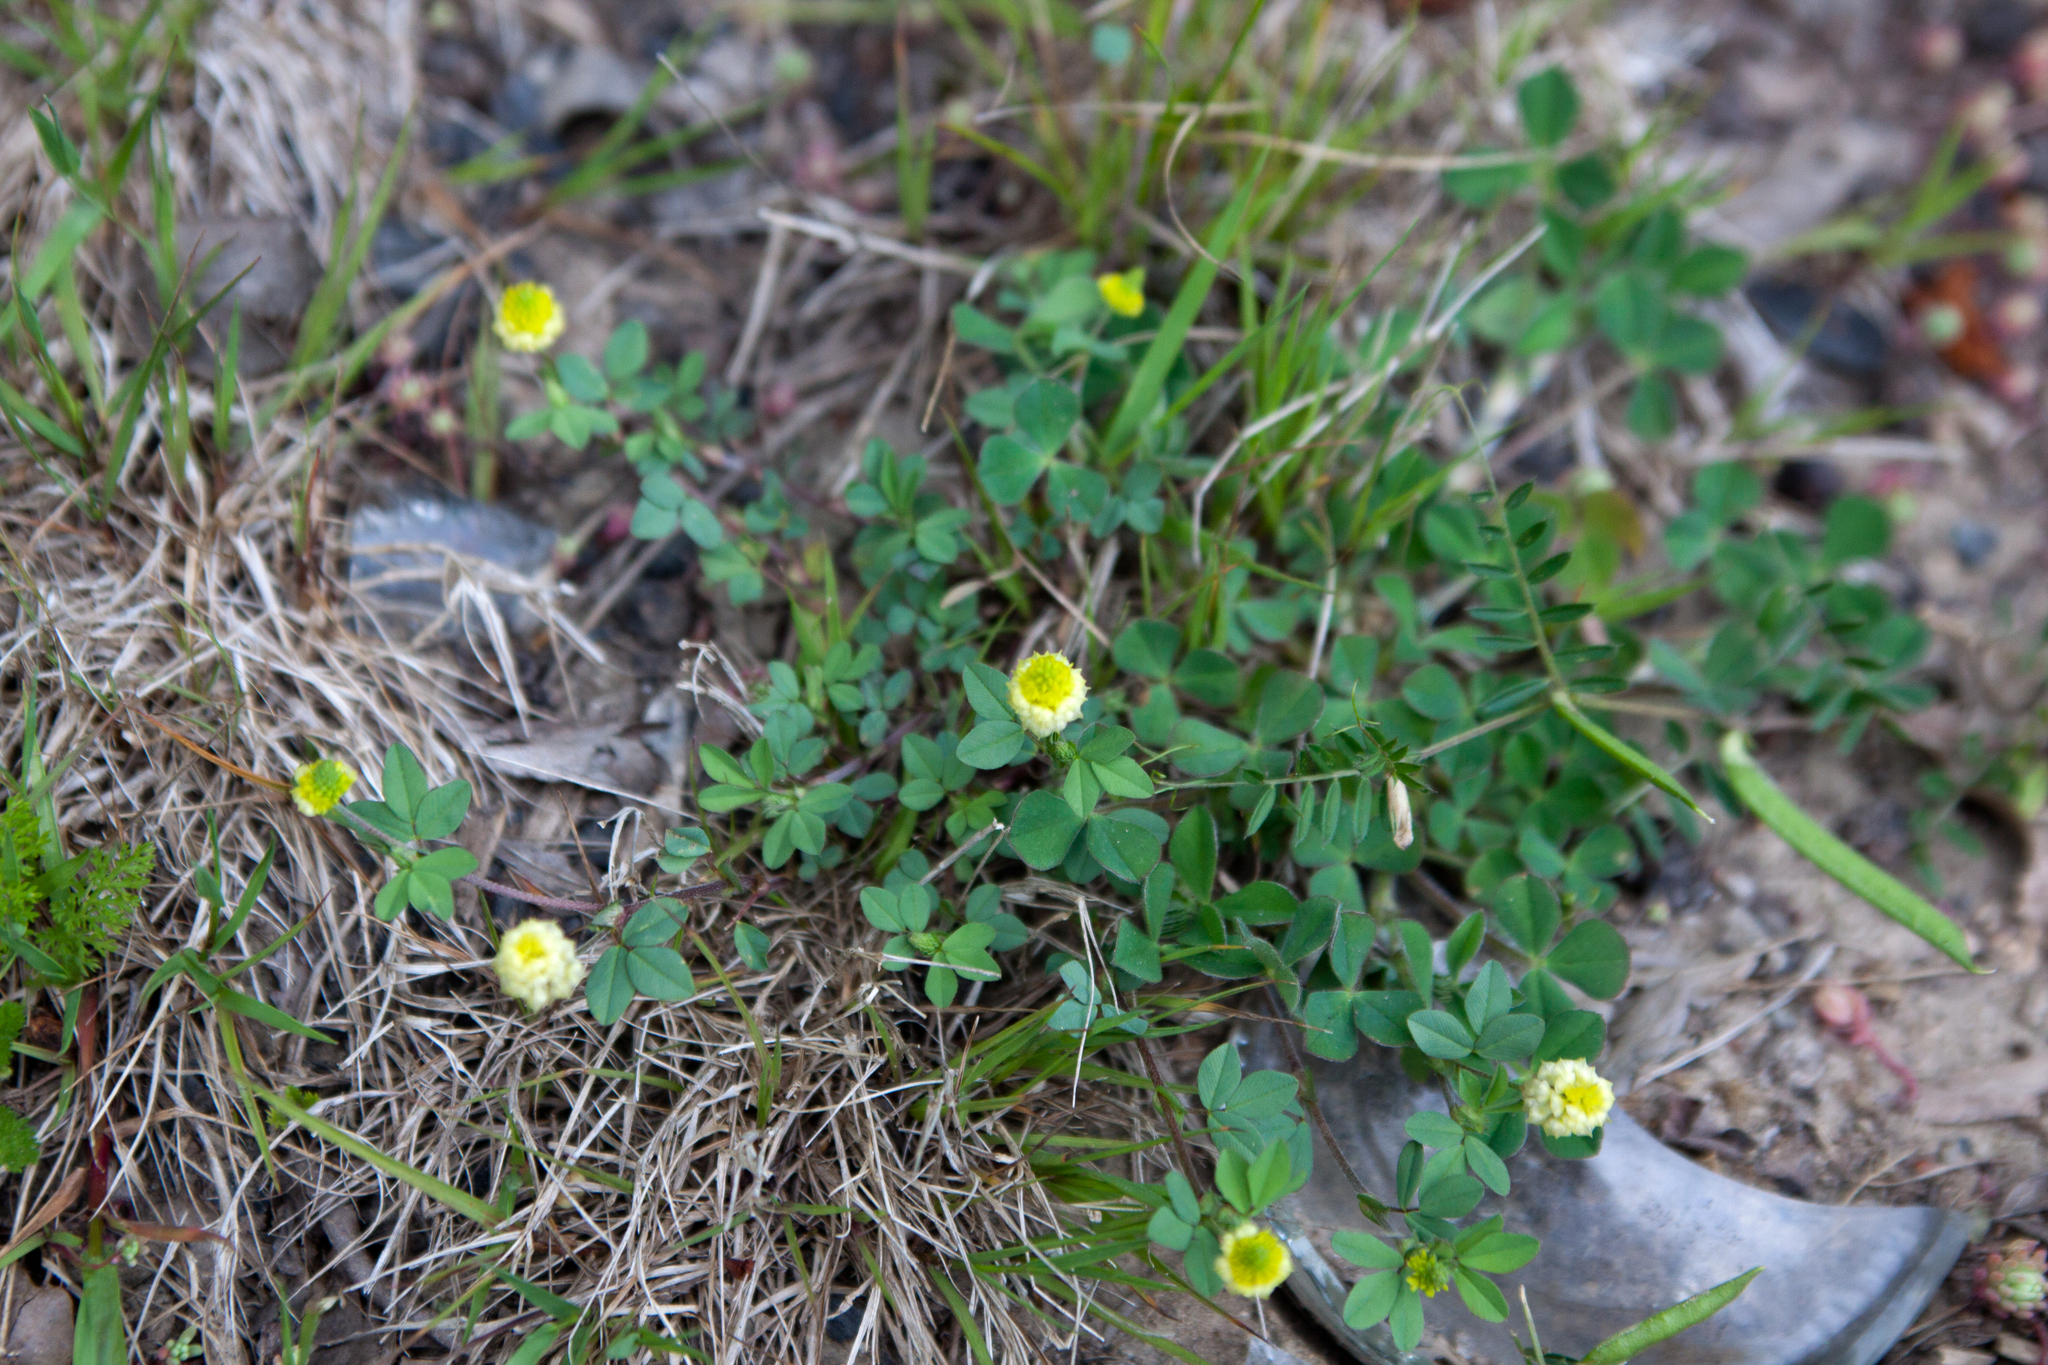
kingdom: Plantae
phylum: Tracheophyta
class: Magnoliopsida
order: Fabales
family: Fabaceae
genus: Trifolium
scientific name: Trifolium campestre
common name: Field clover
